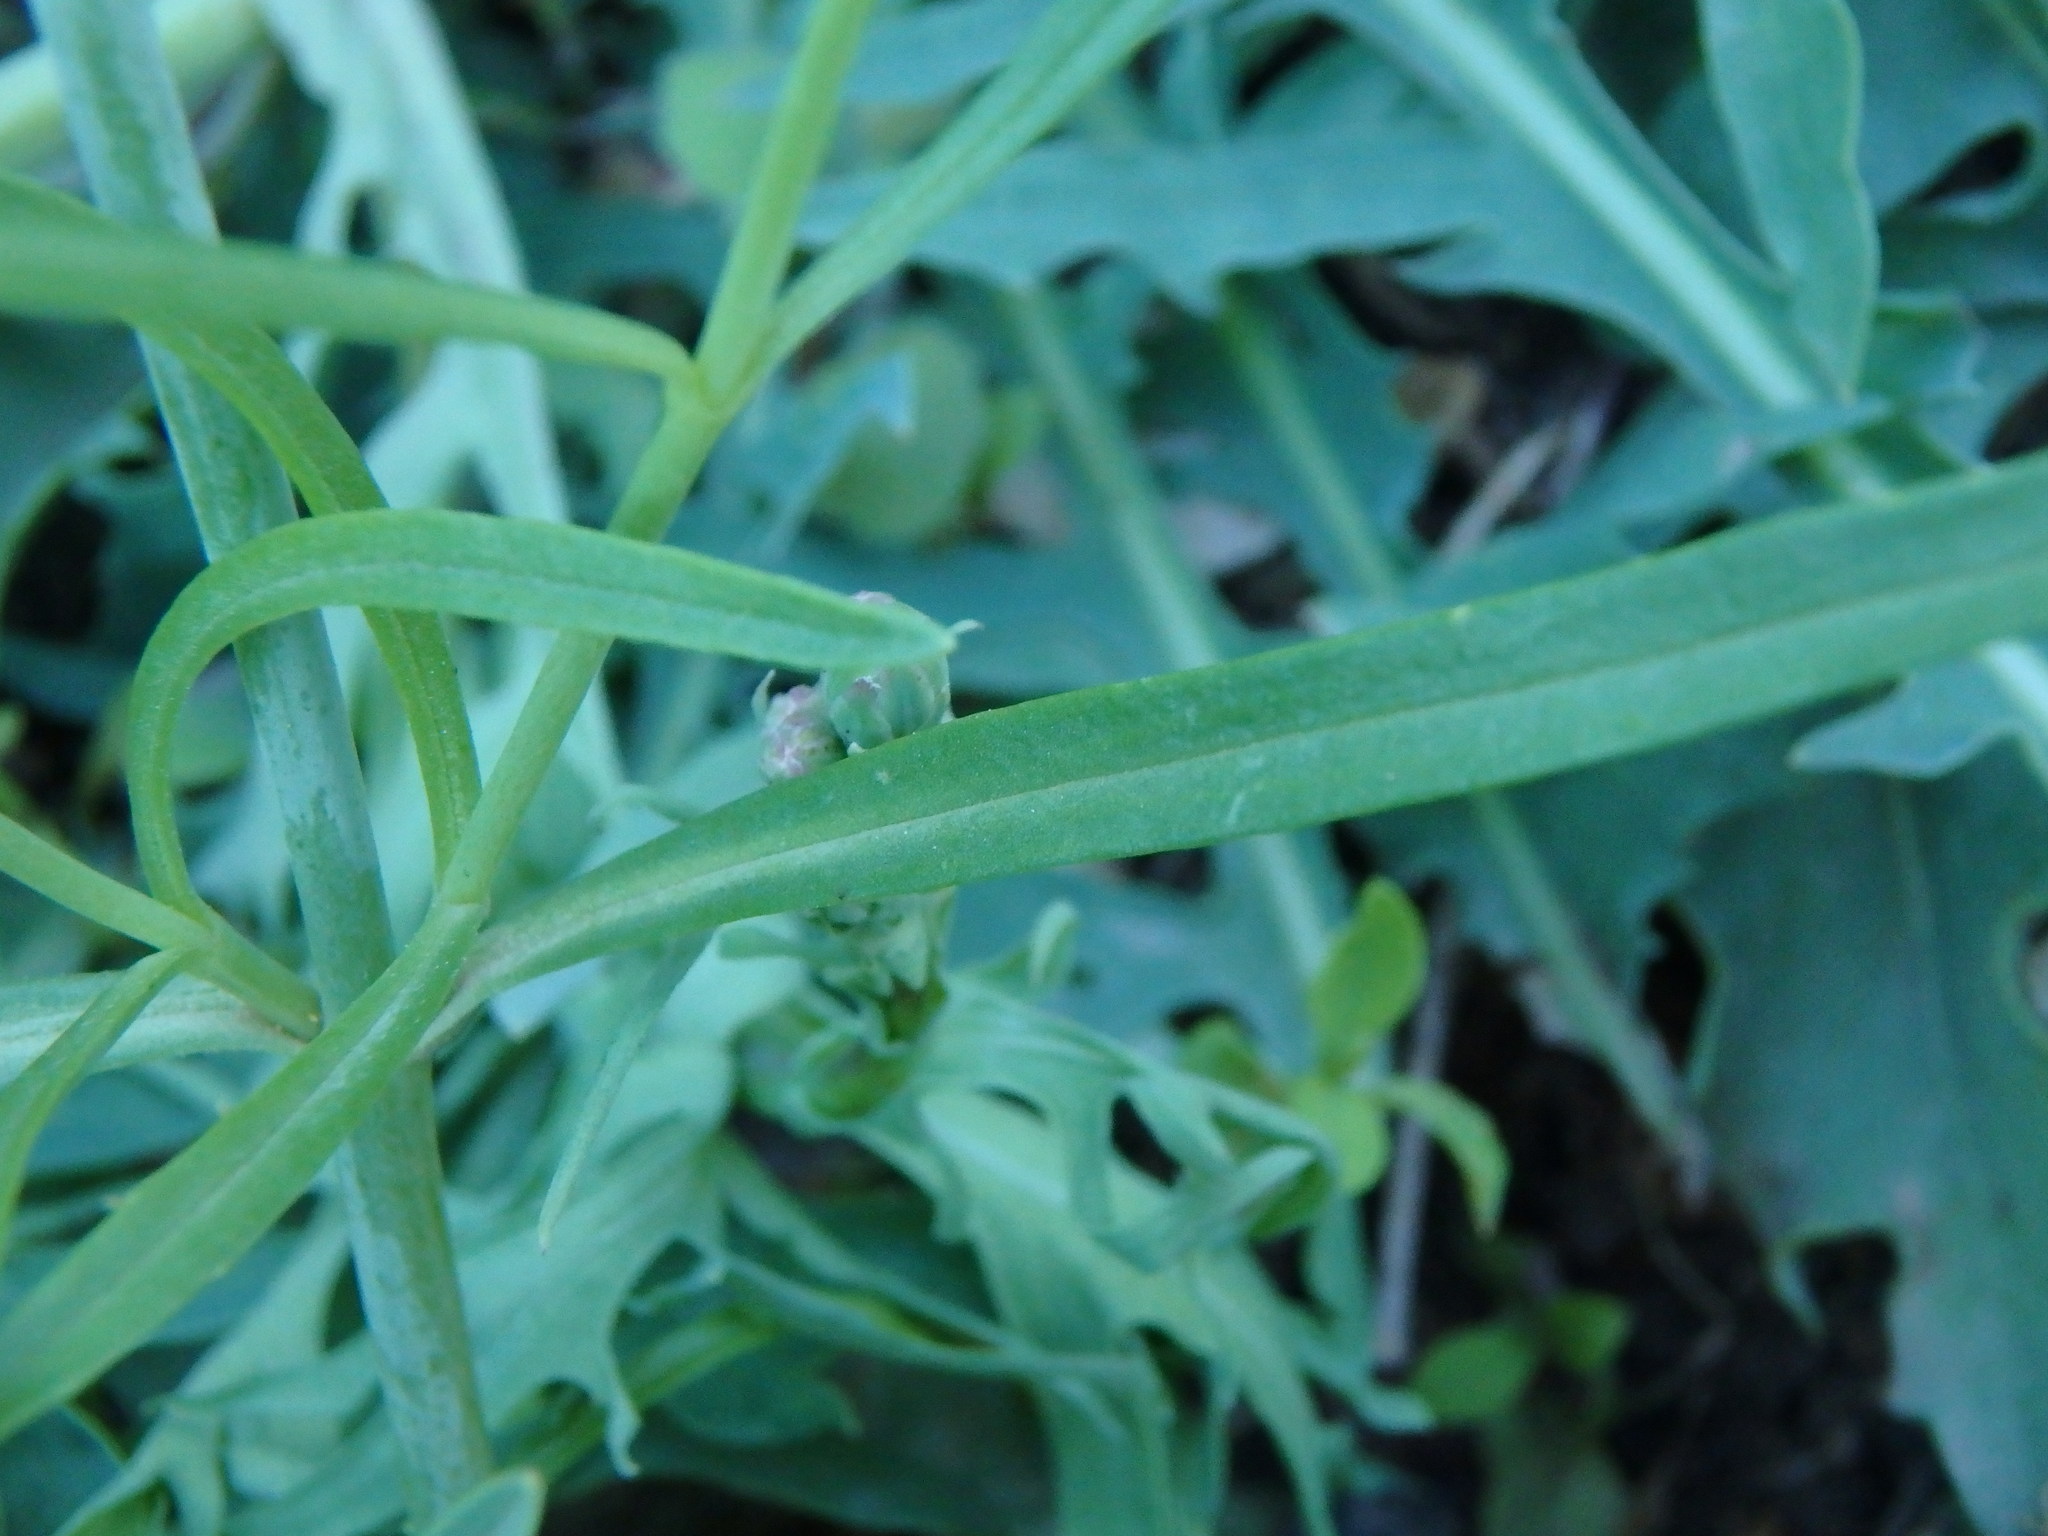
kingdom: Plantae
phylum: Tracheophyta
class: Magnoliopsida
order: Dipsacales
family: Caprifoliaceae
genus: Centranthus
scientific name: Centranthus angustifolius
